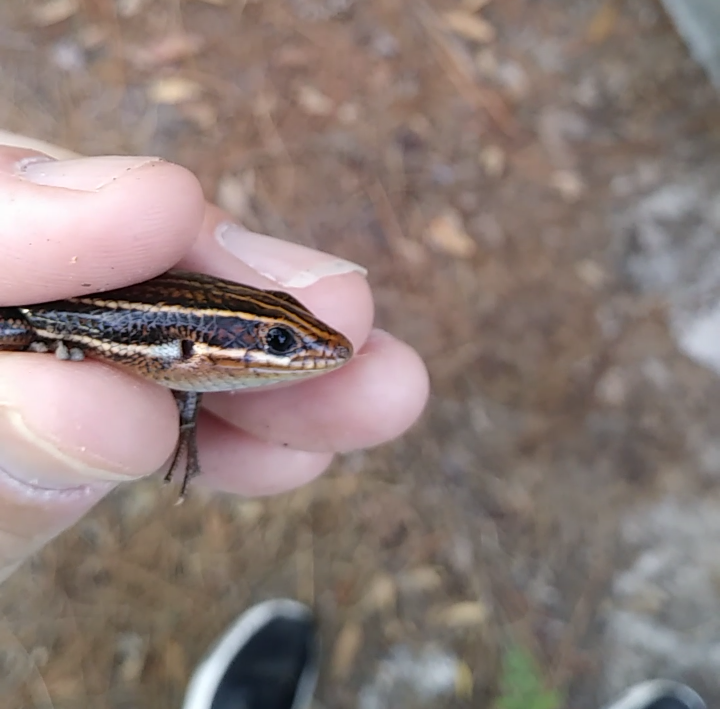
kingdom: Animalia
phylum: Chordata
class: Squamata
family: Scincidae
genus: Plestiodon
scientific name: Plestiodon inexpectatus
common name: Southeastern five-lined skink
